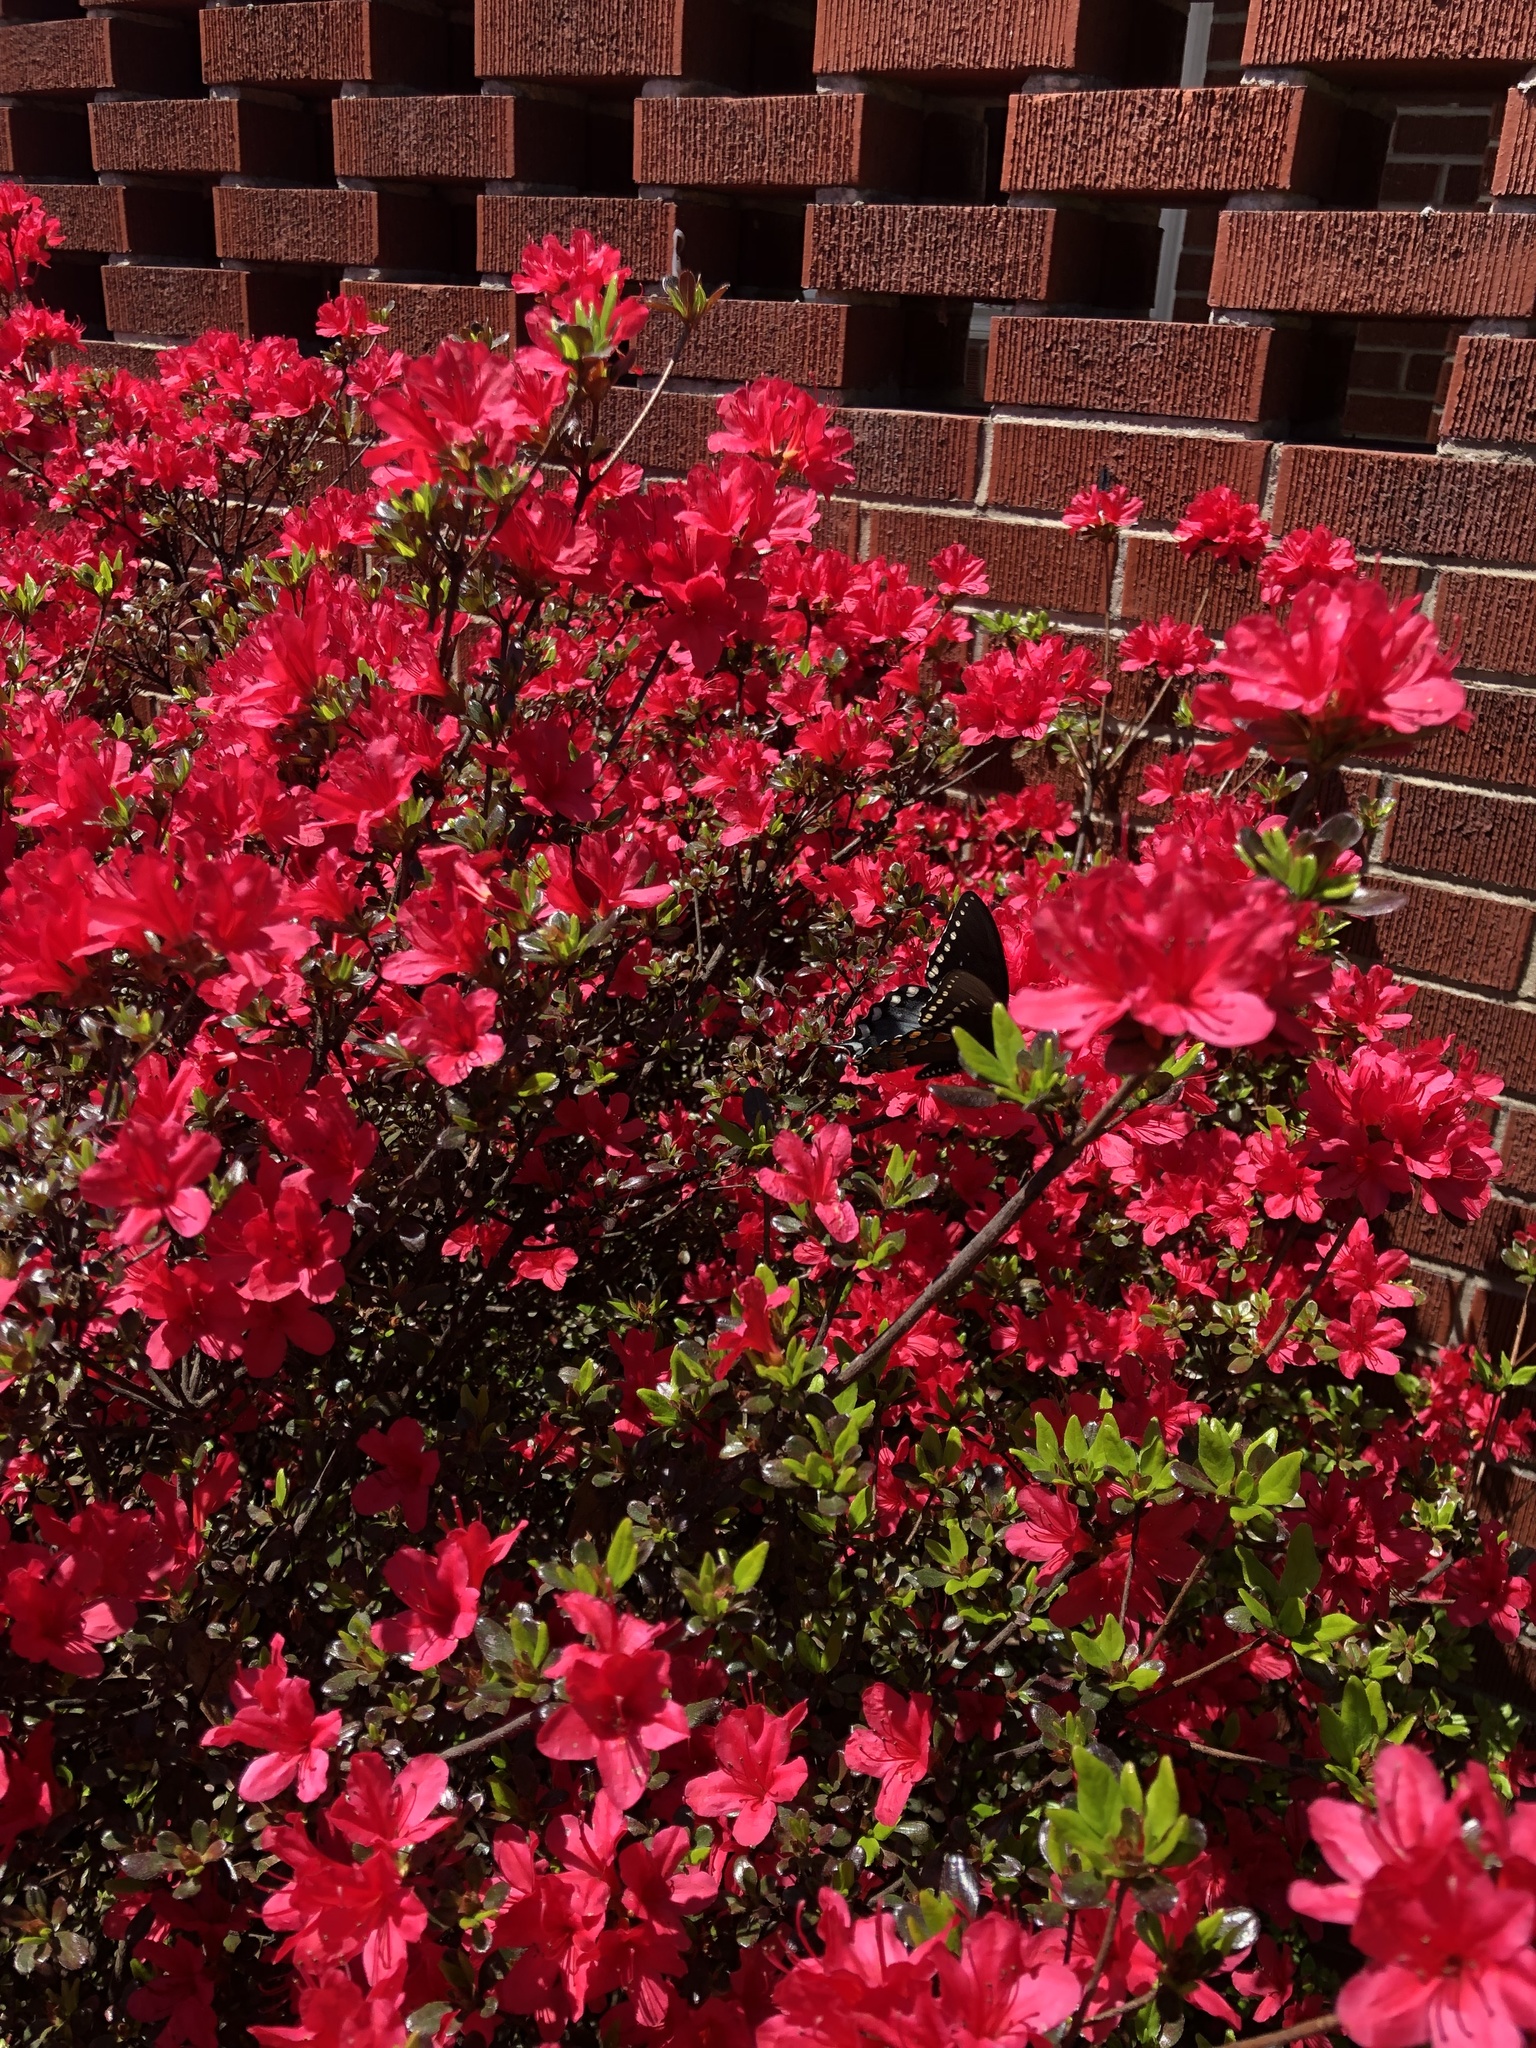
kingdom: Animalia
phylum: Arthropoda
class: Insecta
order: Lepidoptera
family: Papilionidae
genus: Papilio
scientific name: Papilio troilus
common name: Spicebush swallowtail
